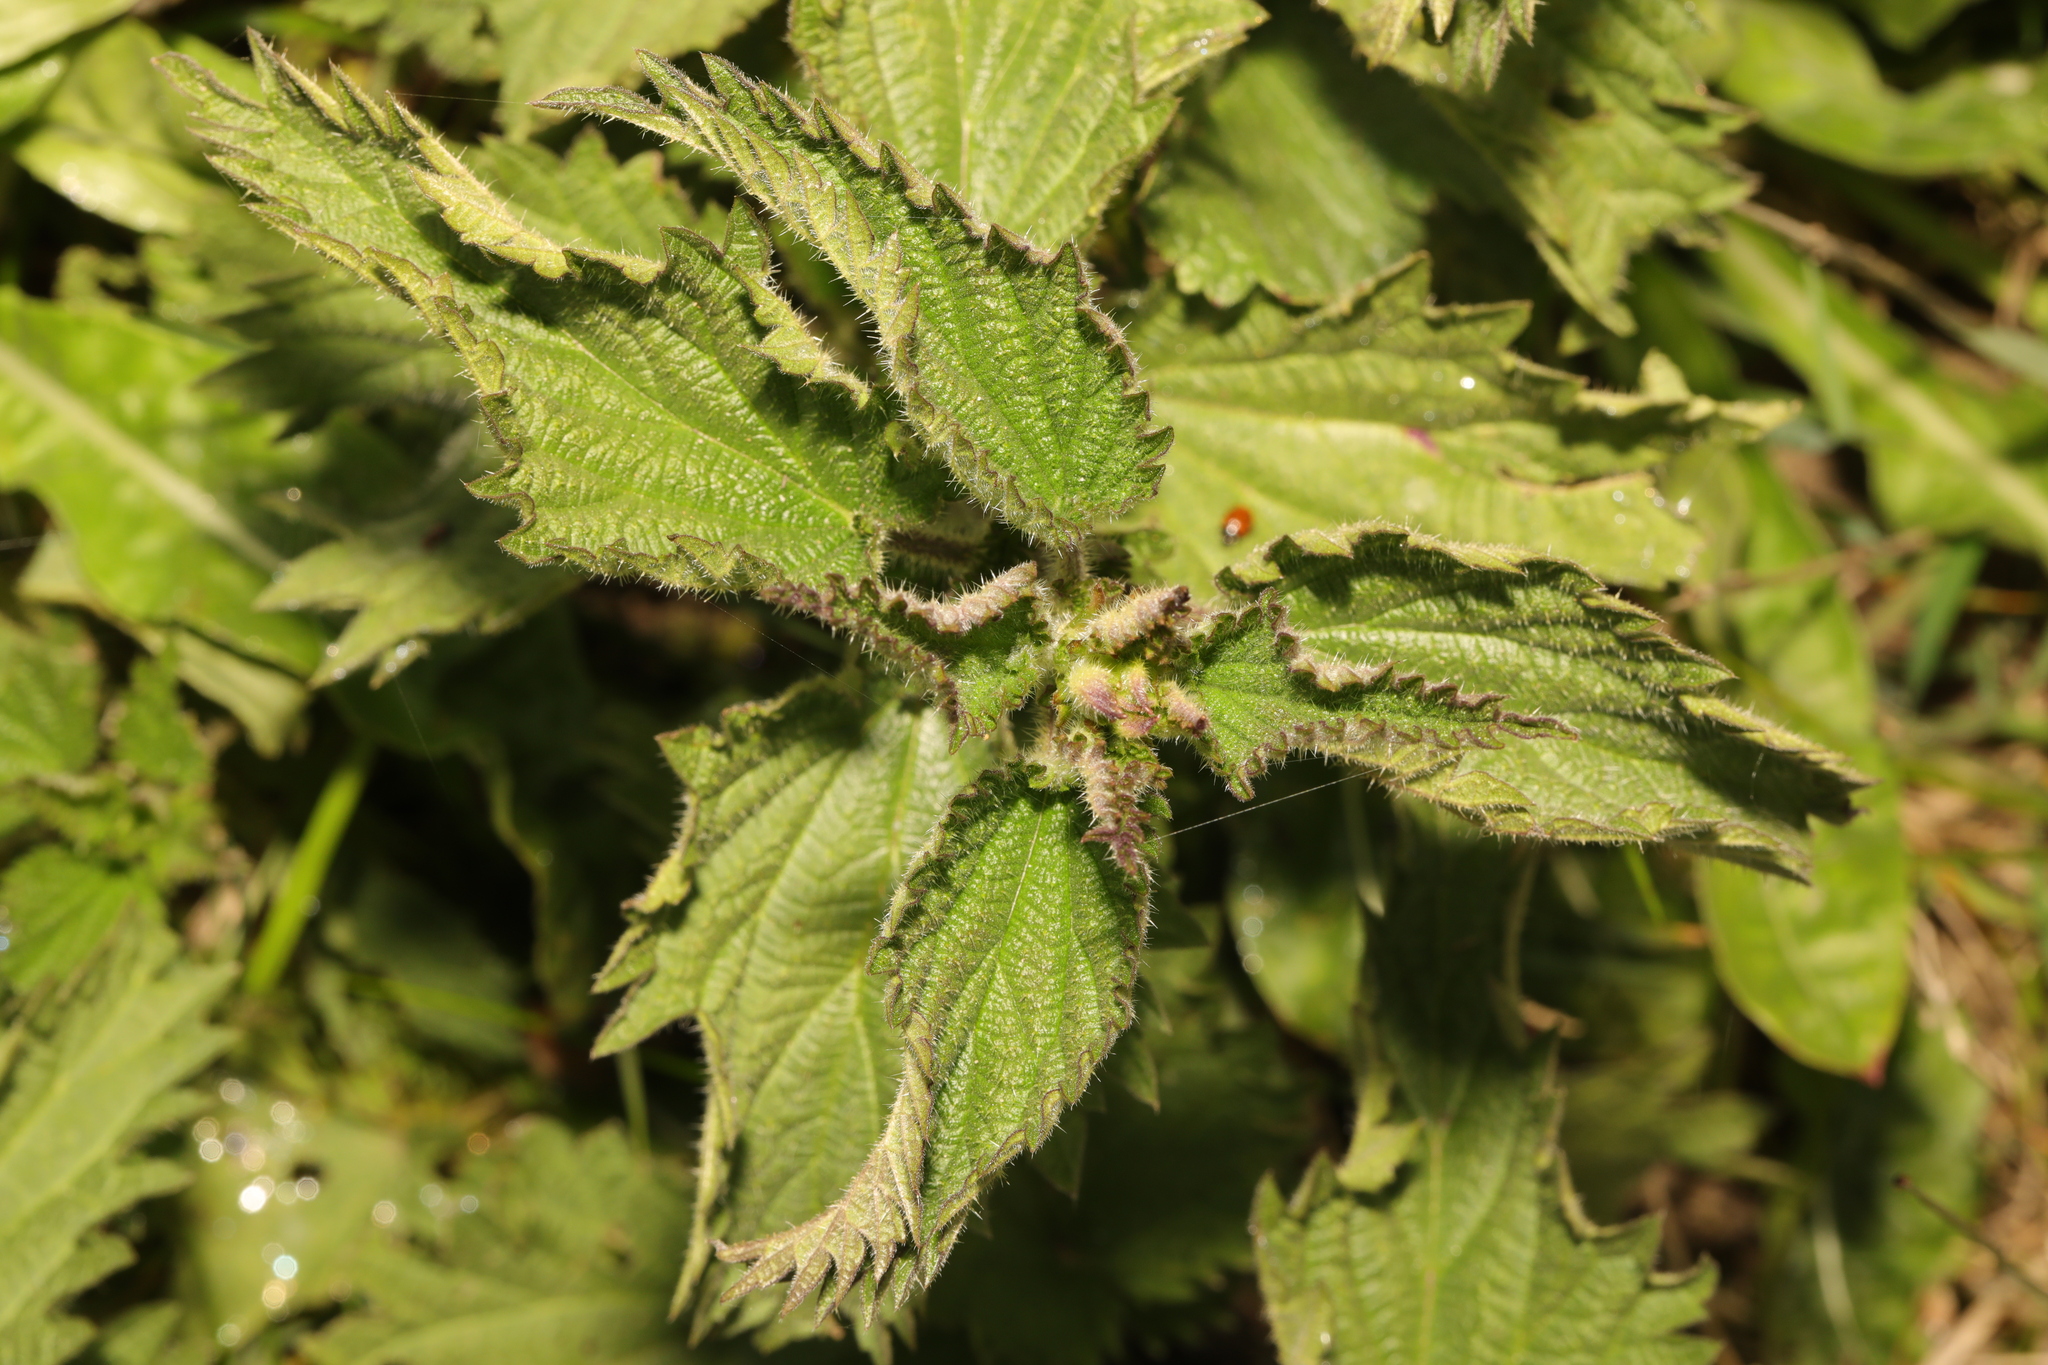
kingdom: Plantae
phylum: Tracheophyta
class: Magnoliopsida
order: Rosales
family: Urticaceae
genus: Urtica
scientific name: Urtica dioica
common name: Common nettle
